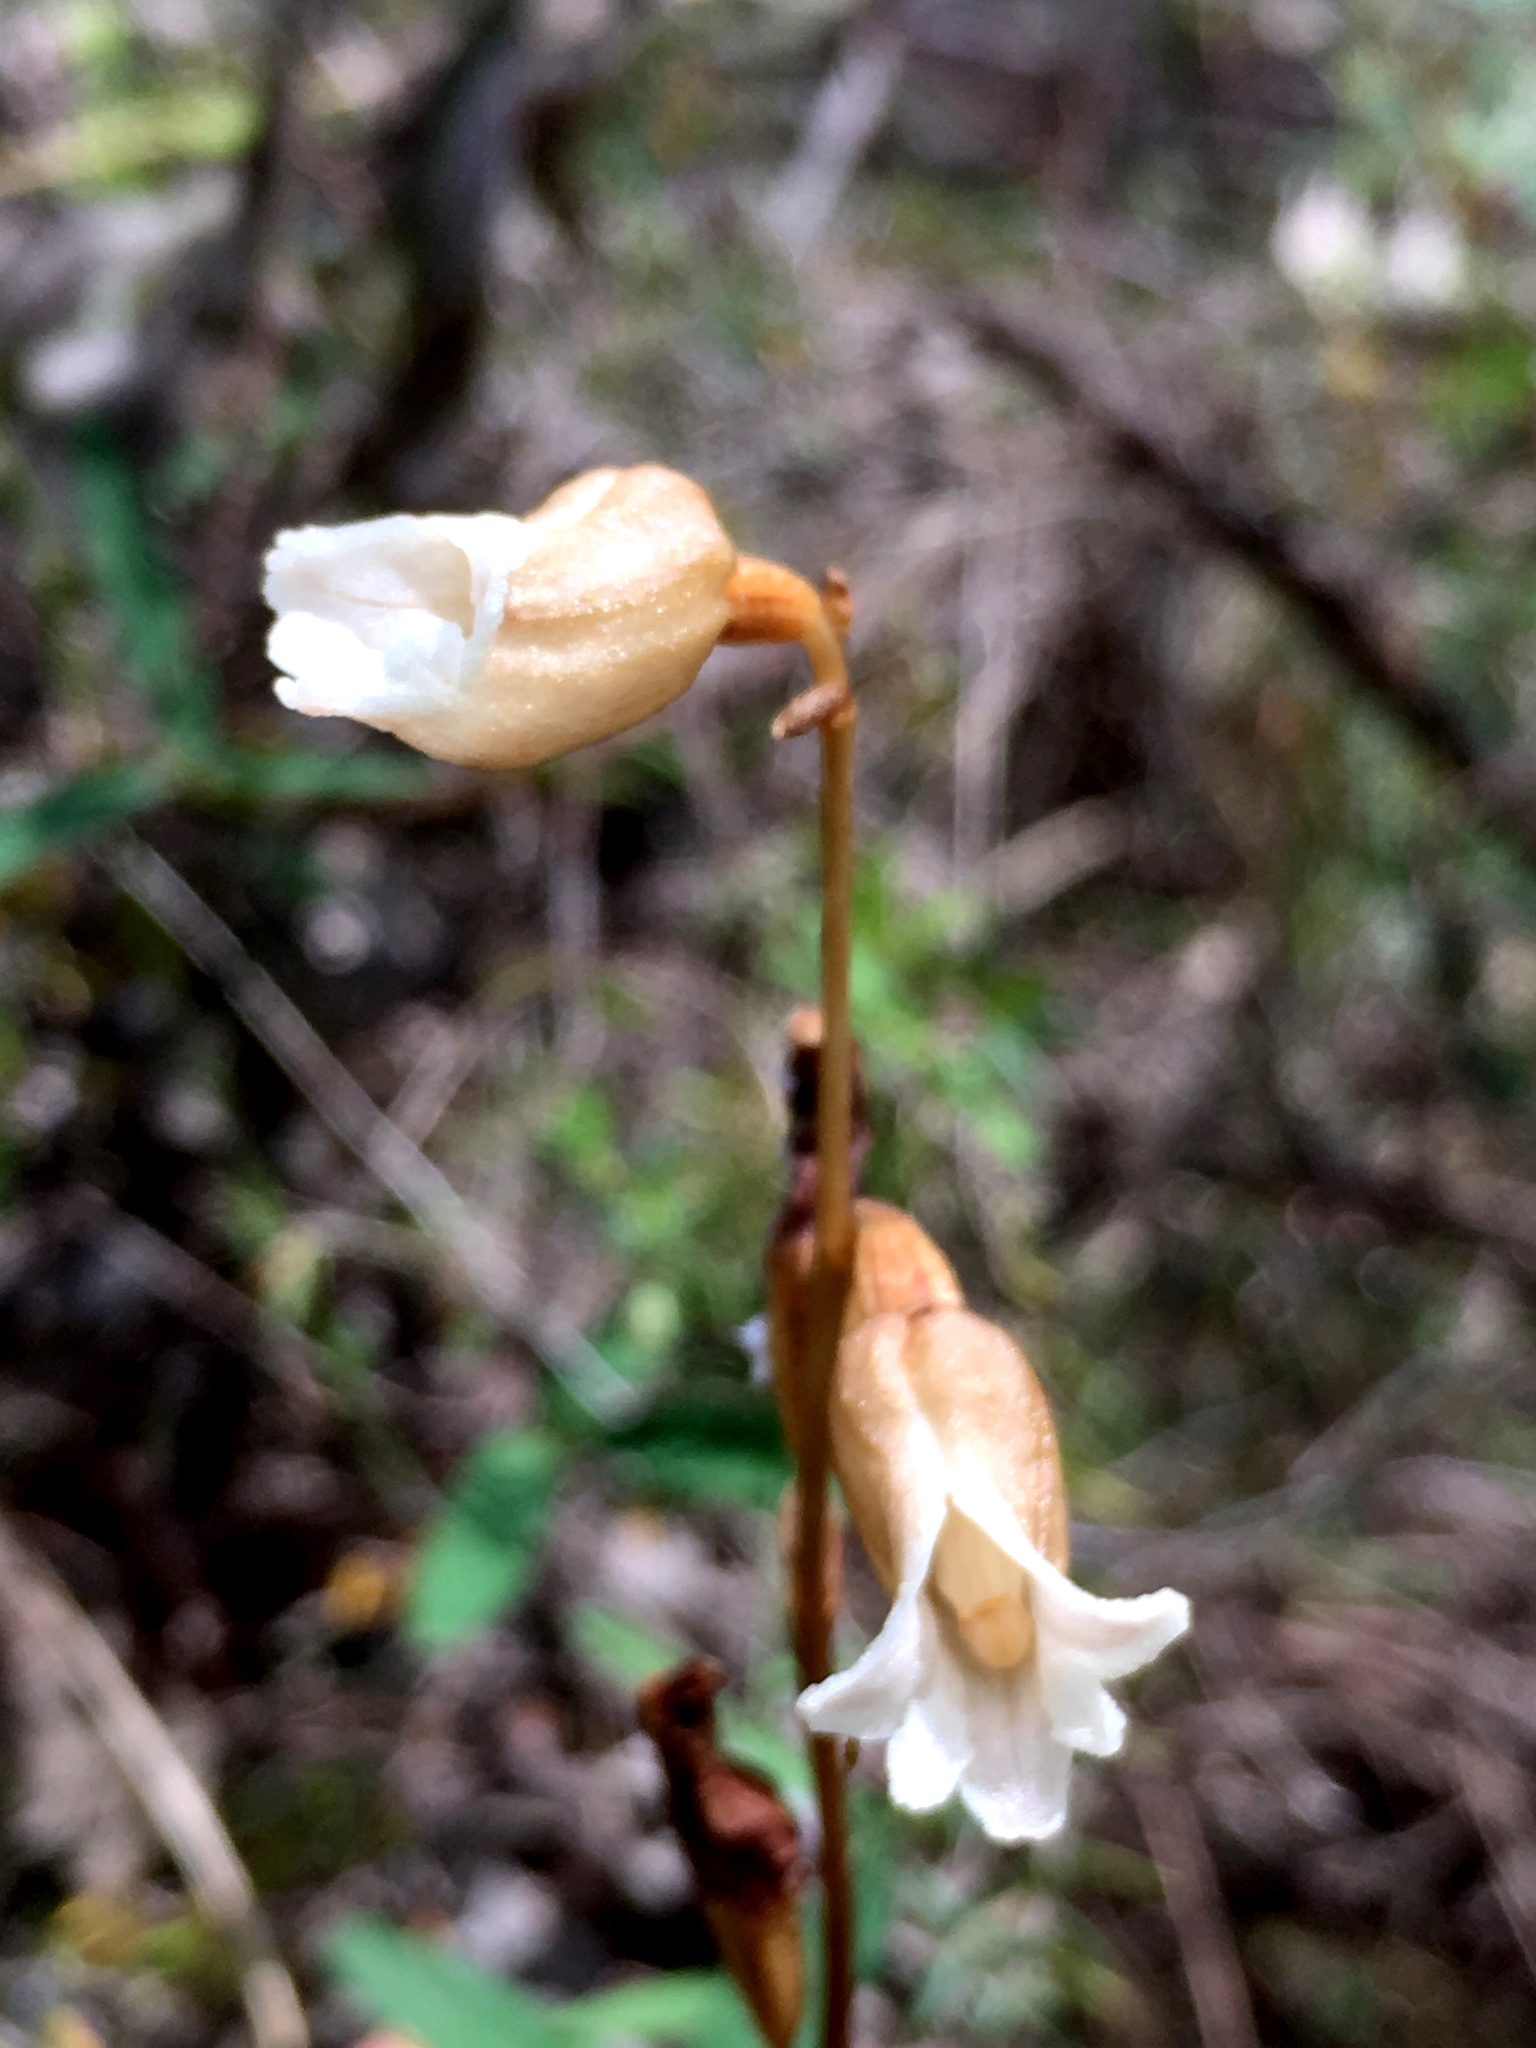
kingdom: Plantae
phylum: Tracheophyta
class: Liliopsida
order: Asparagales
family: Orchidaceae
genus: Gastrodia
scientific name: Gastrodia sesamoides
